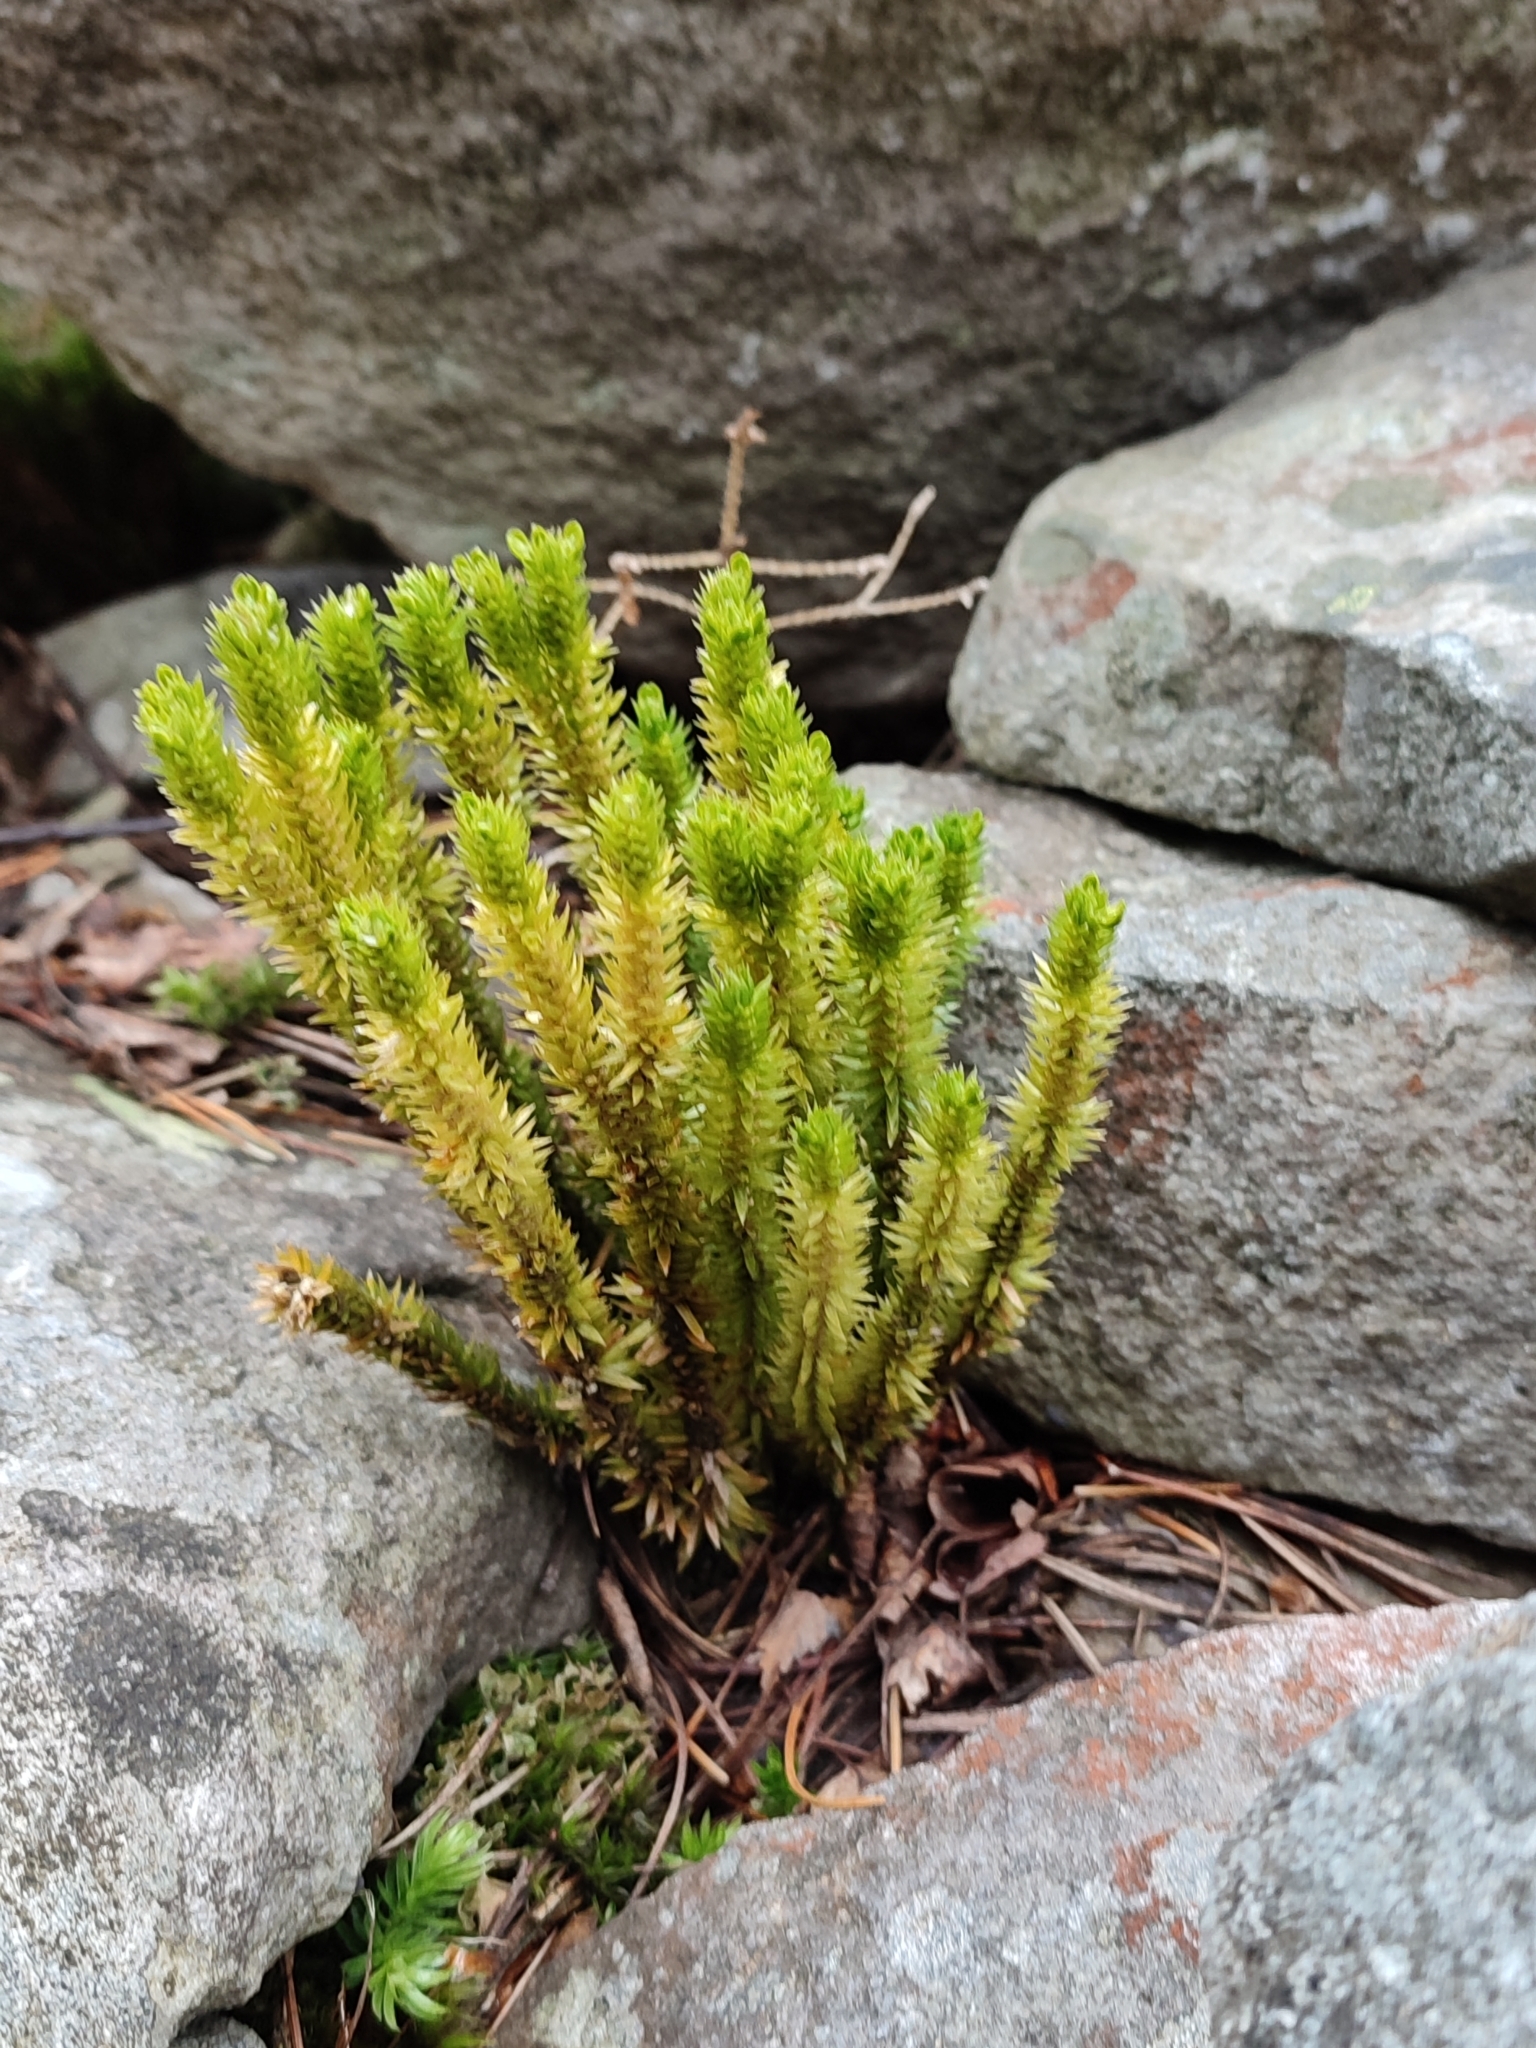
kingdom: Plantae
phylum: Tracheophyta
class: Lycopodiopsida
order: Lycopodiales
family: Lycopodiaceae
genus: Huperzia
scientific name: Huperzia selago
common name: Northern firmoss
